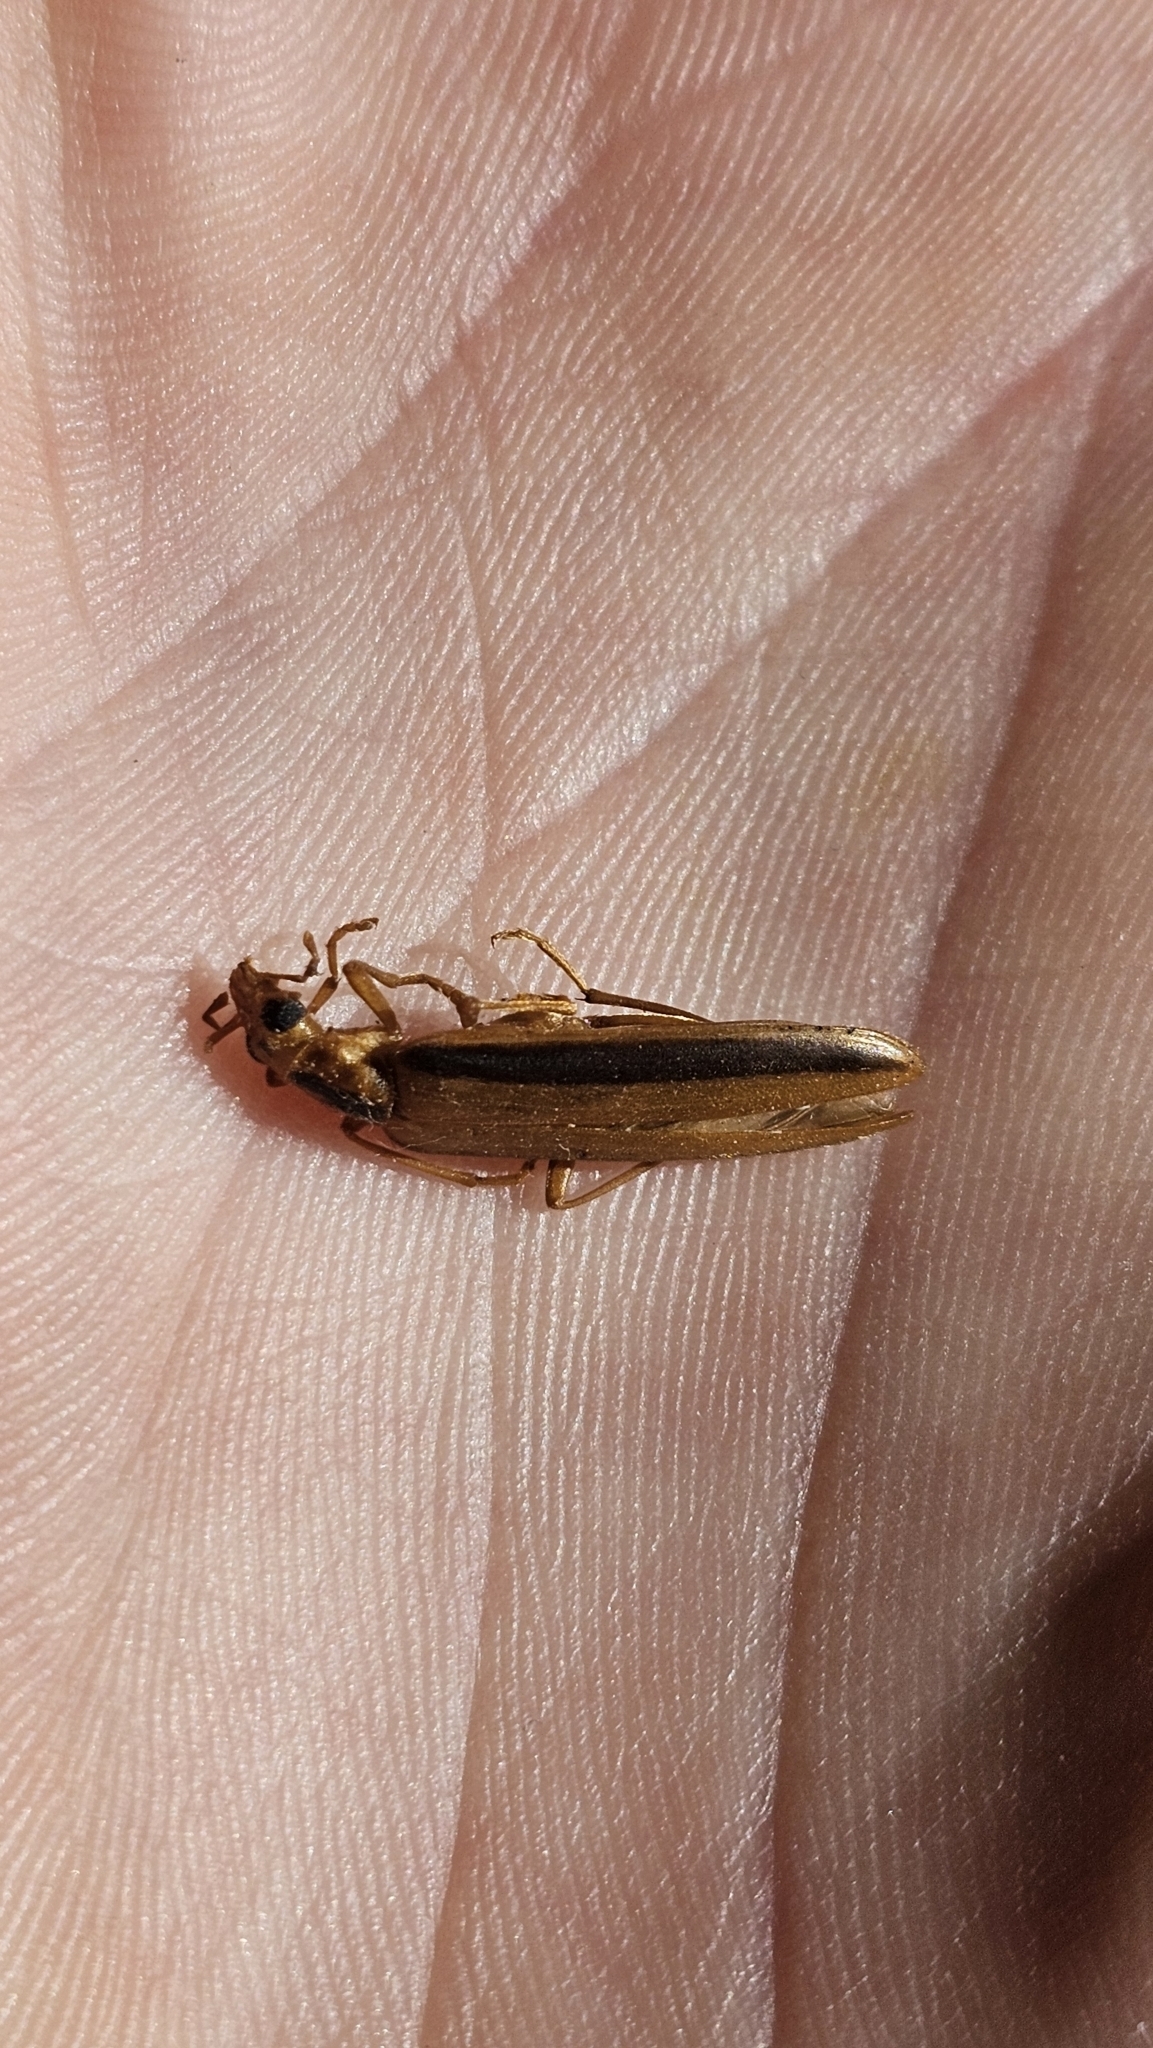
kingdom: Animalia
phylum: Arthropoda
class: Insecta
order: Coleoptera
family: Oedemeridae
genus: Thelyphassa
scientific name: Thelyphassa
